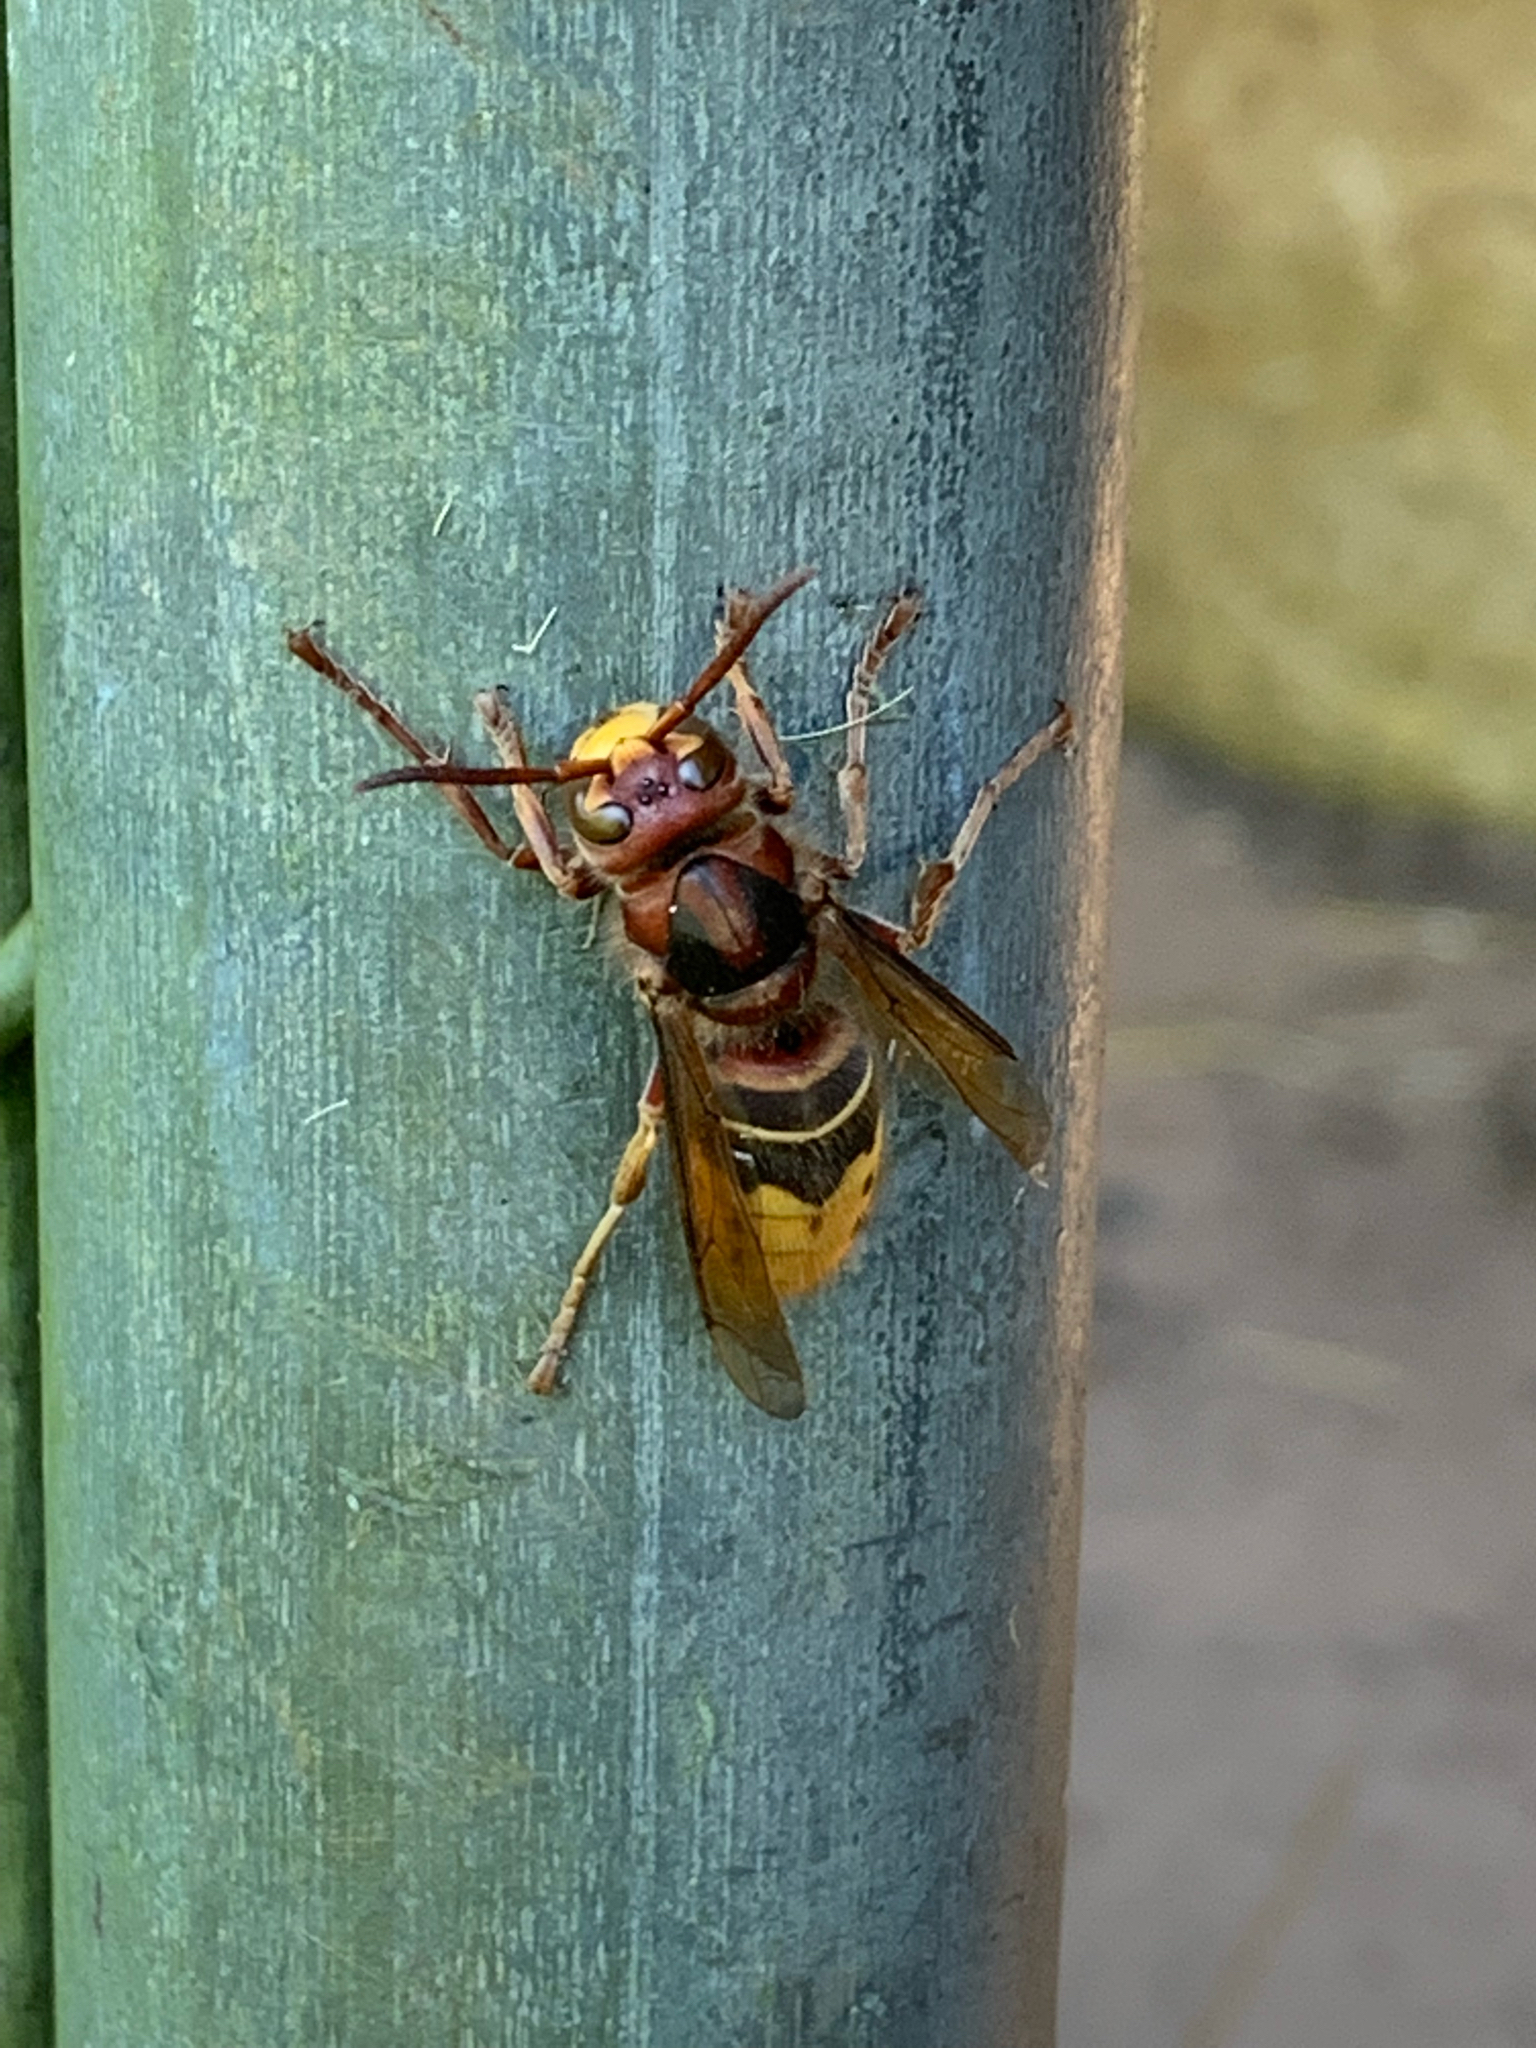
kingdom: Animalia
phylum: Arthropoda
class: Insecta
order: Hymenoptera
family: Vespidae
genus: Vespa
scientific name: Vespa crabro
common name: Hornet
